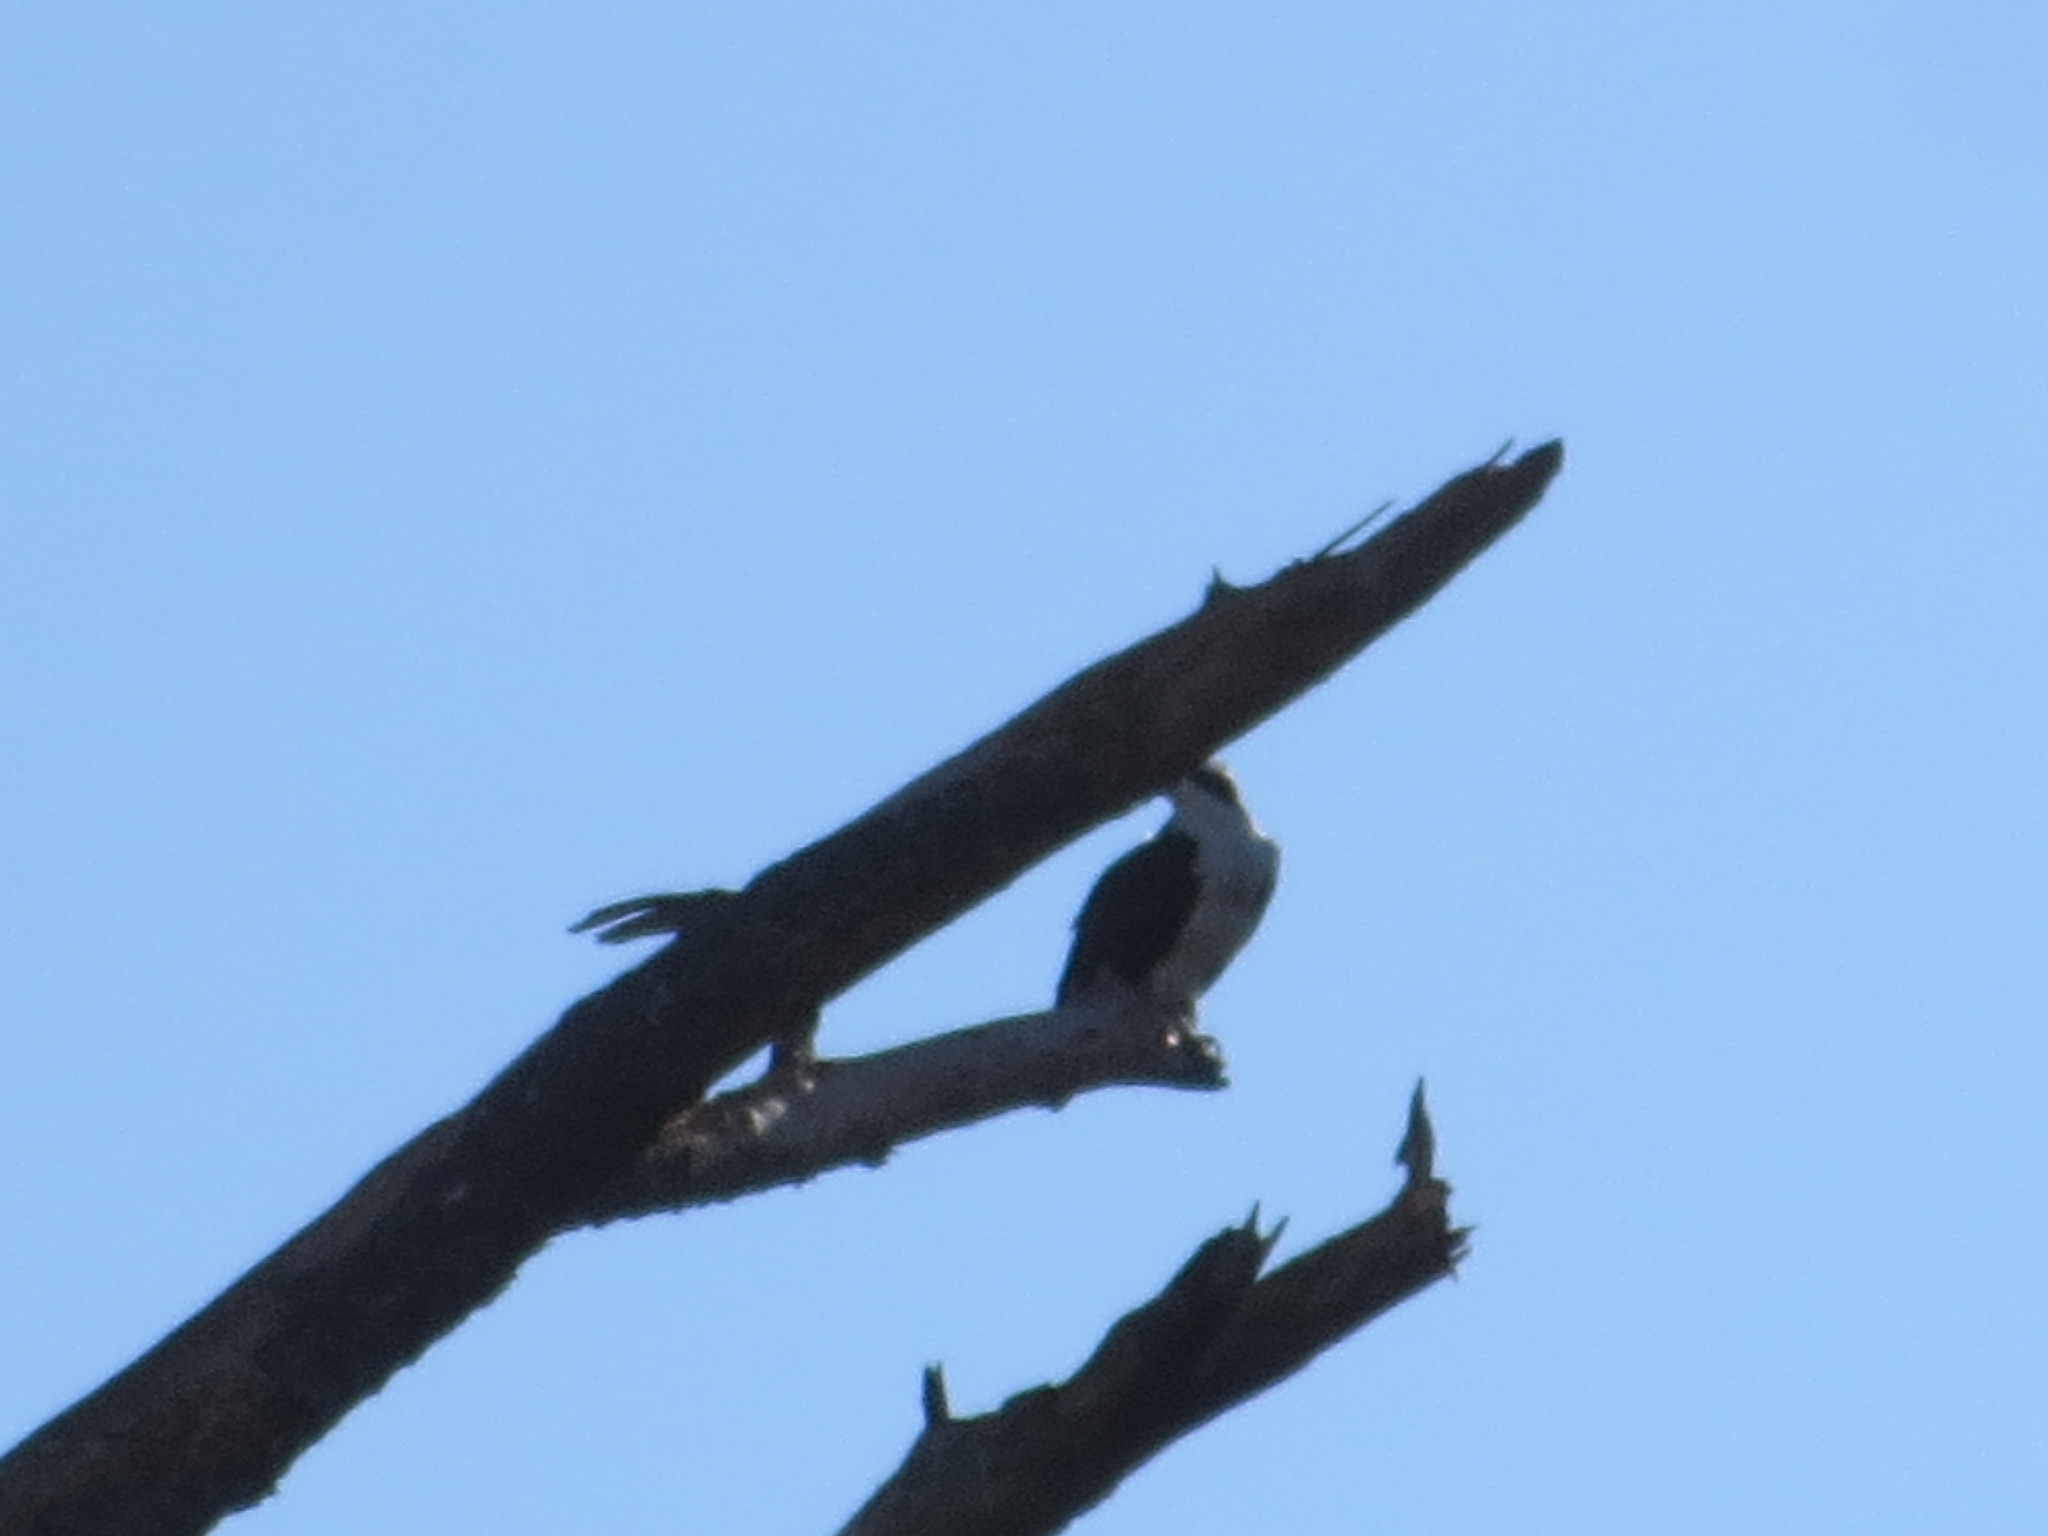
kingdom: Animalia
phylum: Chordata
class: Aves
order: Accipitriformes
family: Pandionidae
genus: Pandion
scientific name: Pandion haliaetus
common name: Osprey
